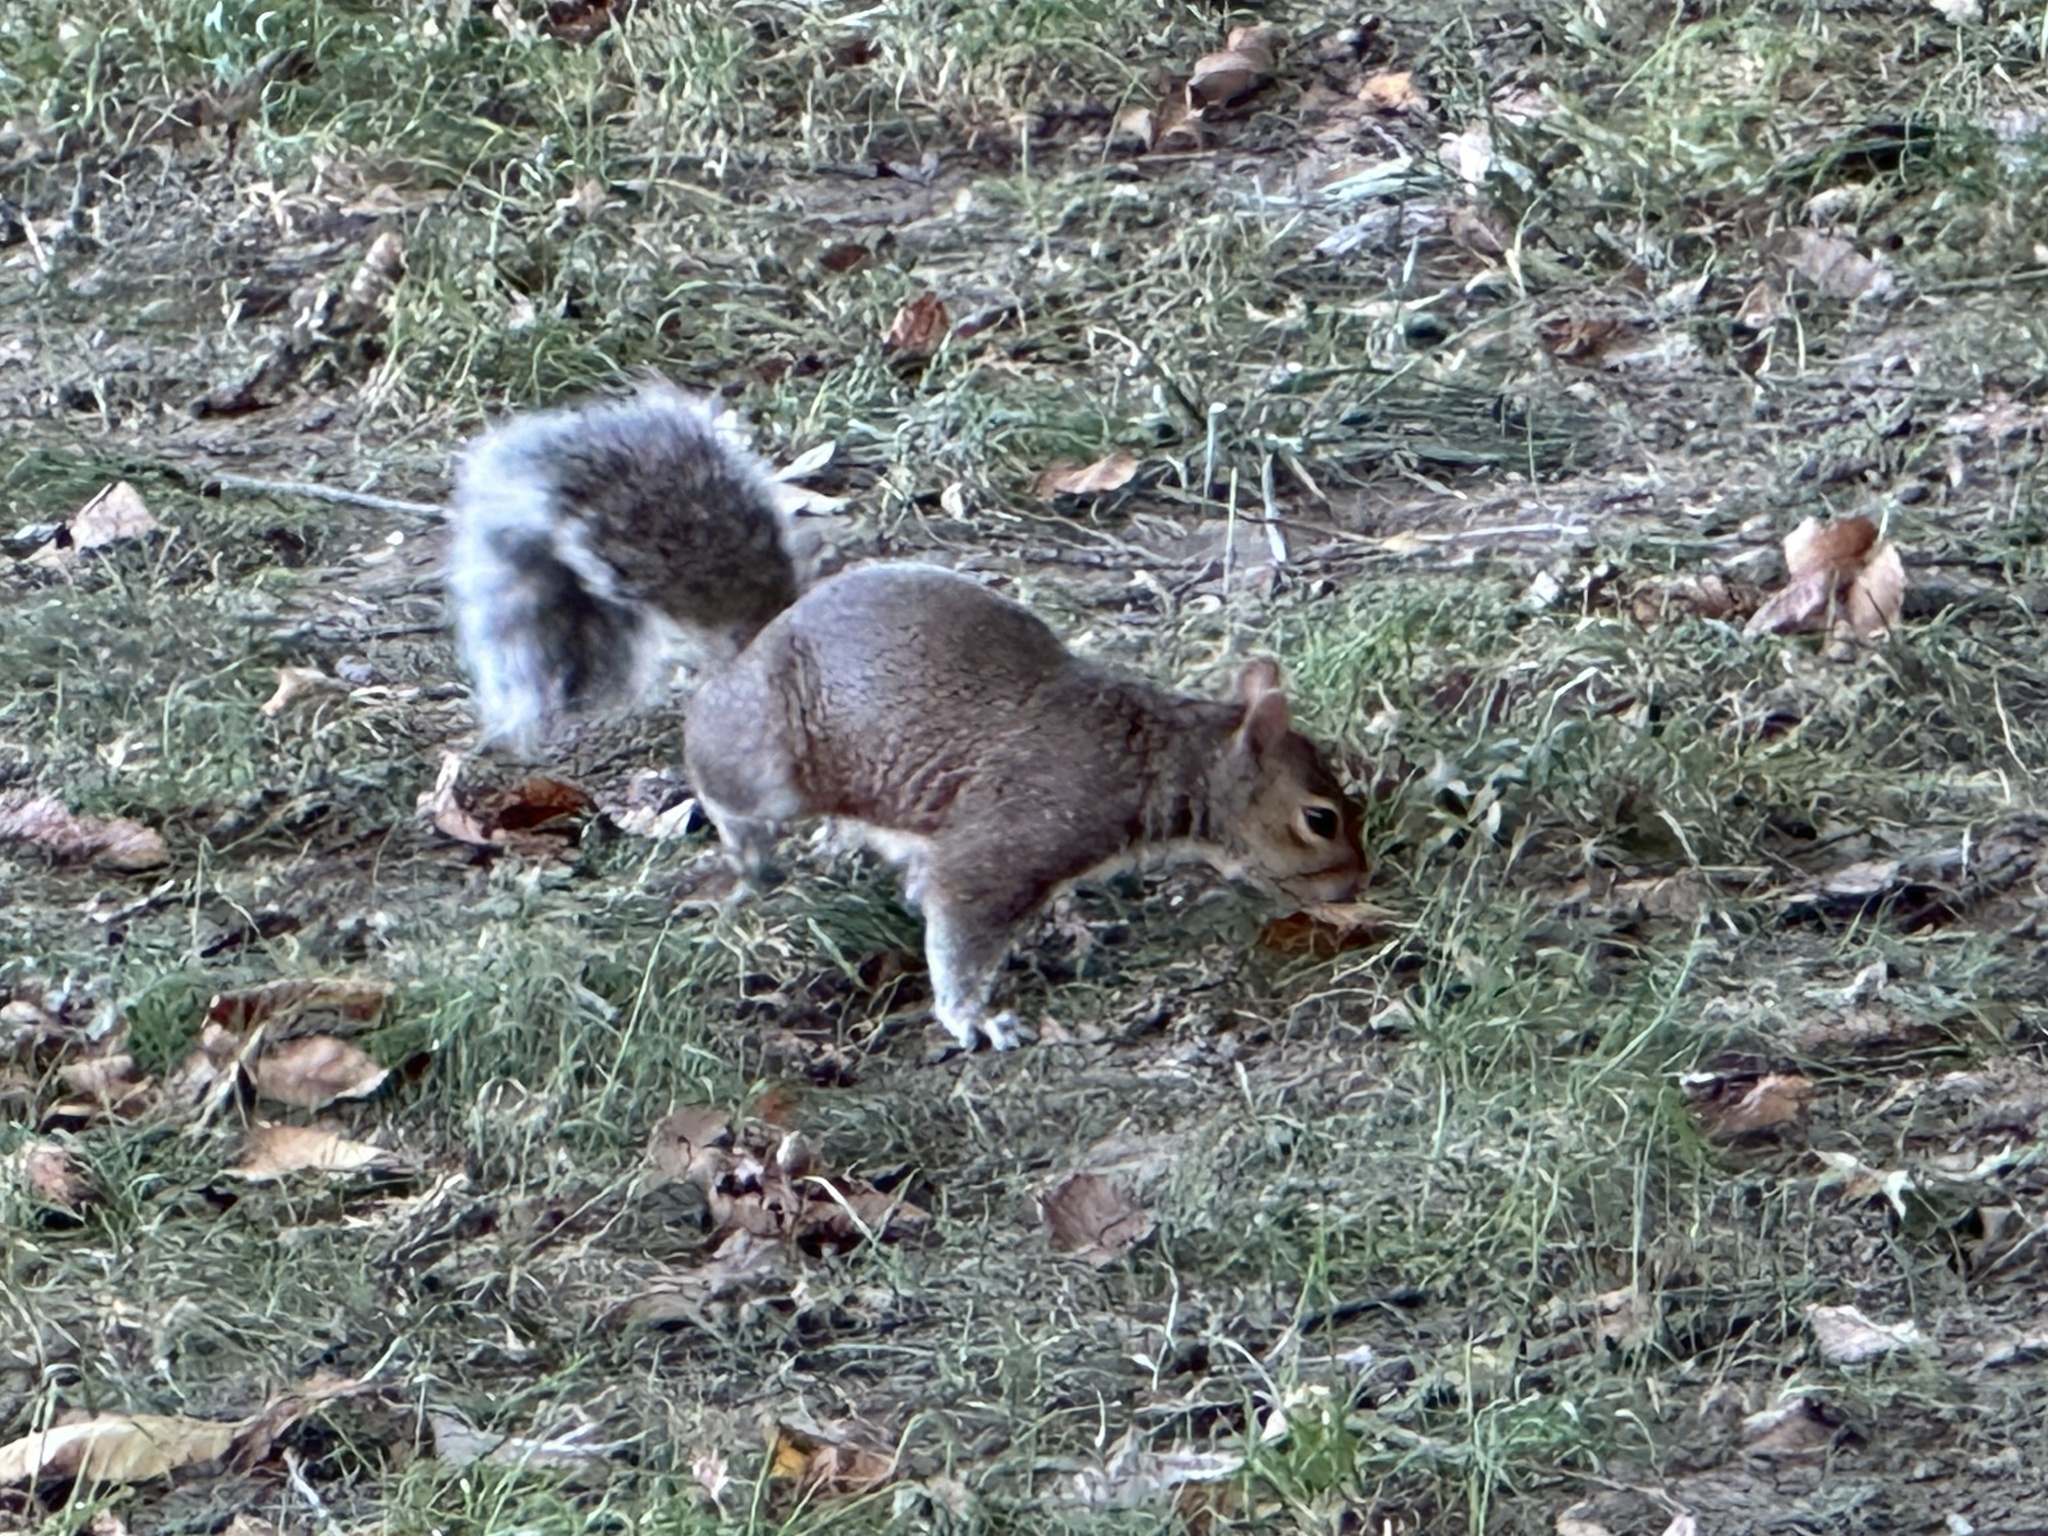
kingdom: Animalia
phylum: Chordata
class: Mammalia
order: Rodentia
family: Sciuridae
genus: Sciurus
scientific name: Sciurus carolinensis
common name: Eastern gray squirrel
